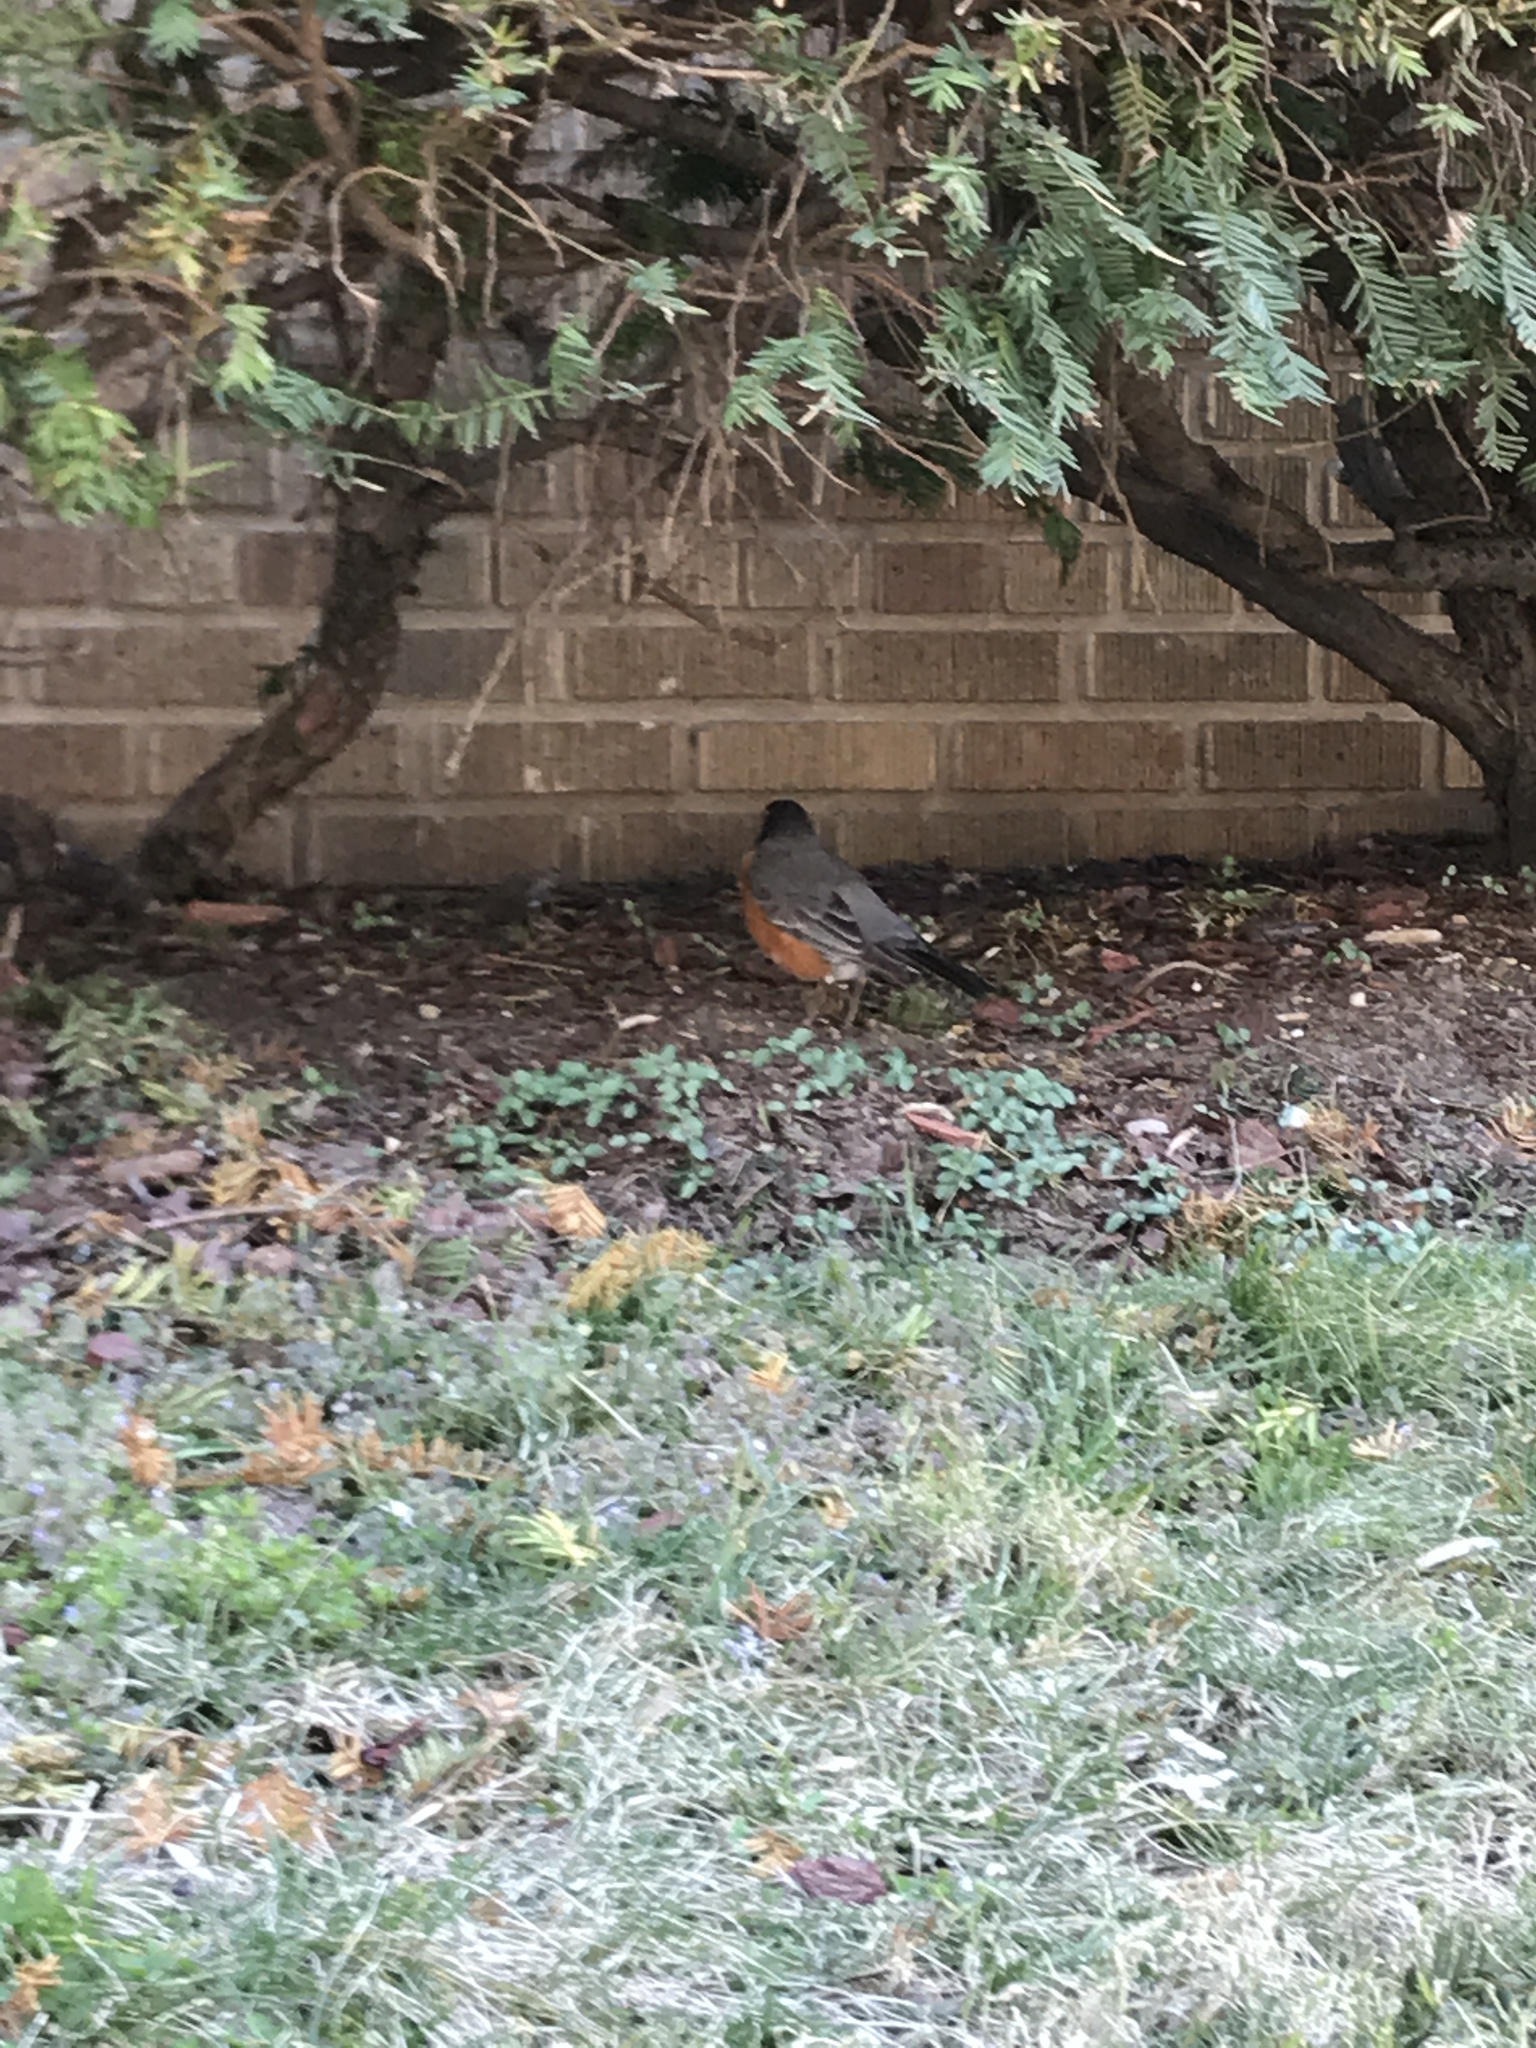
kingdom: Animalia
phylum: Chordata
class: Aves
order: Passeriformes
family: Turdidae
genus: Turdus
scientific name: Turdus migratorius
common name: American robin
